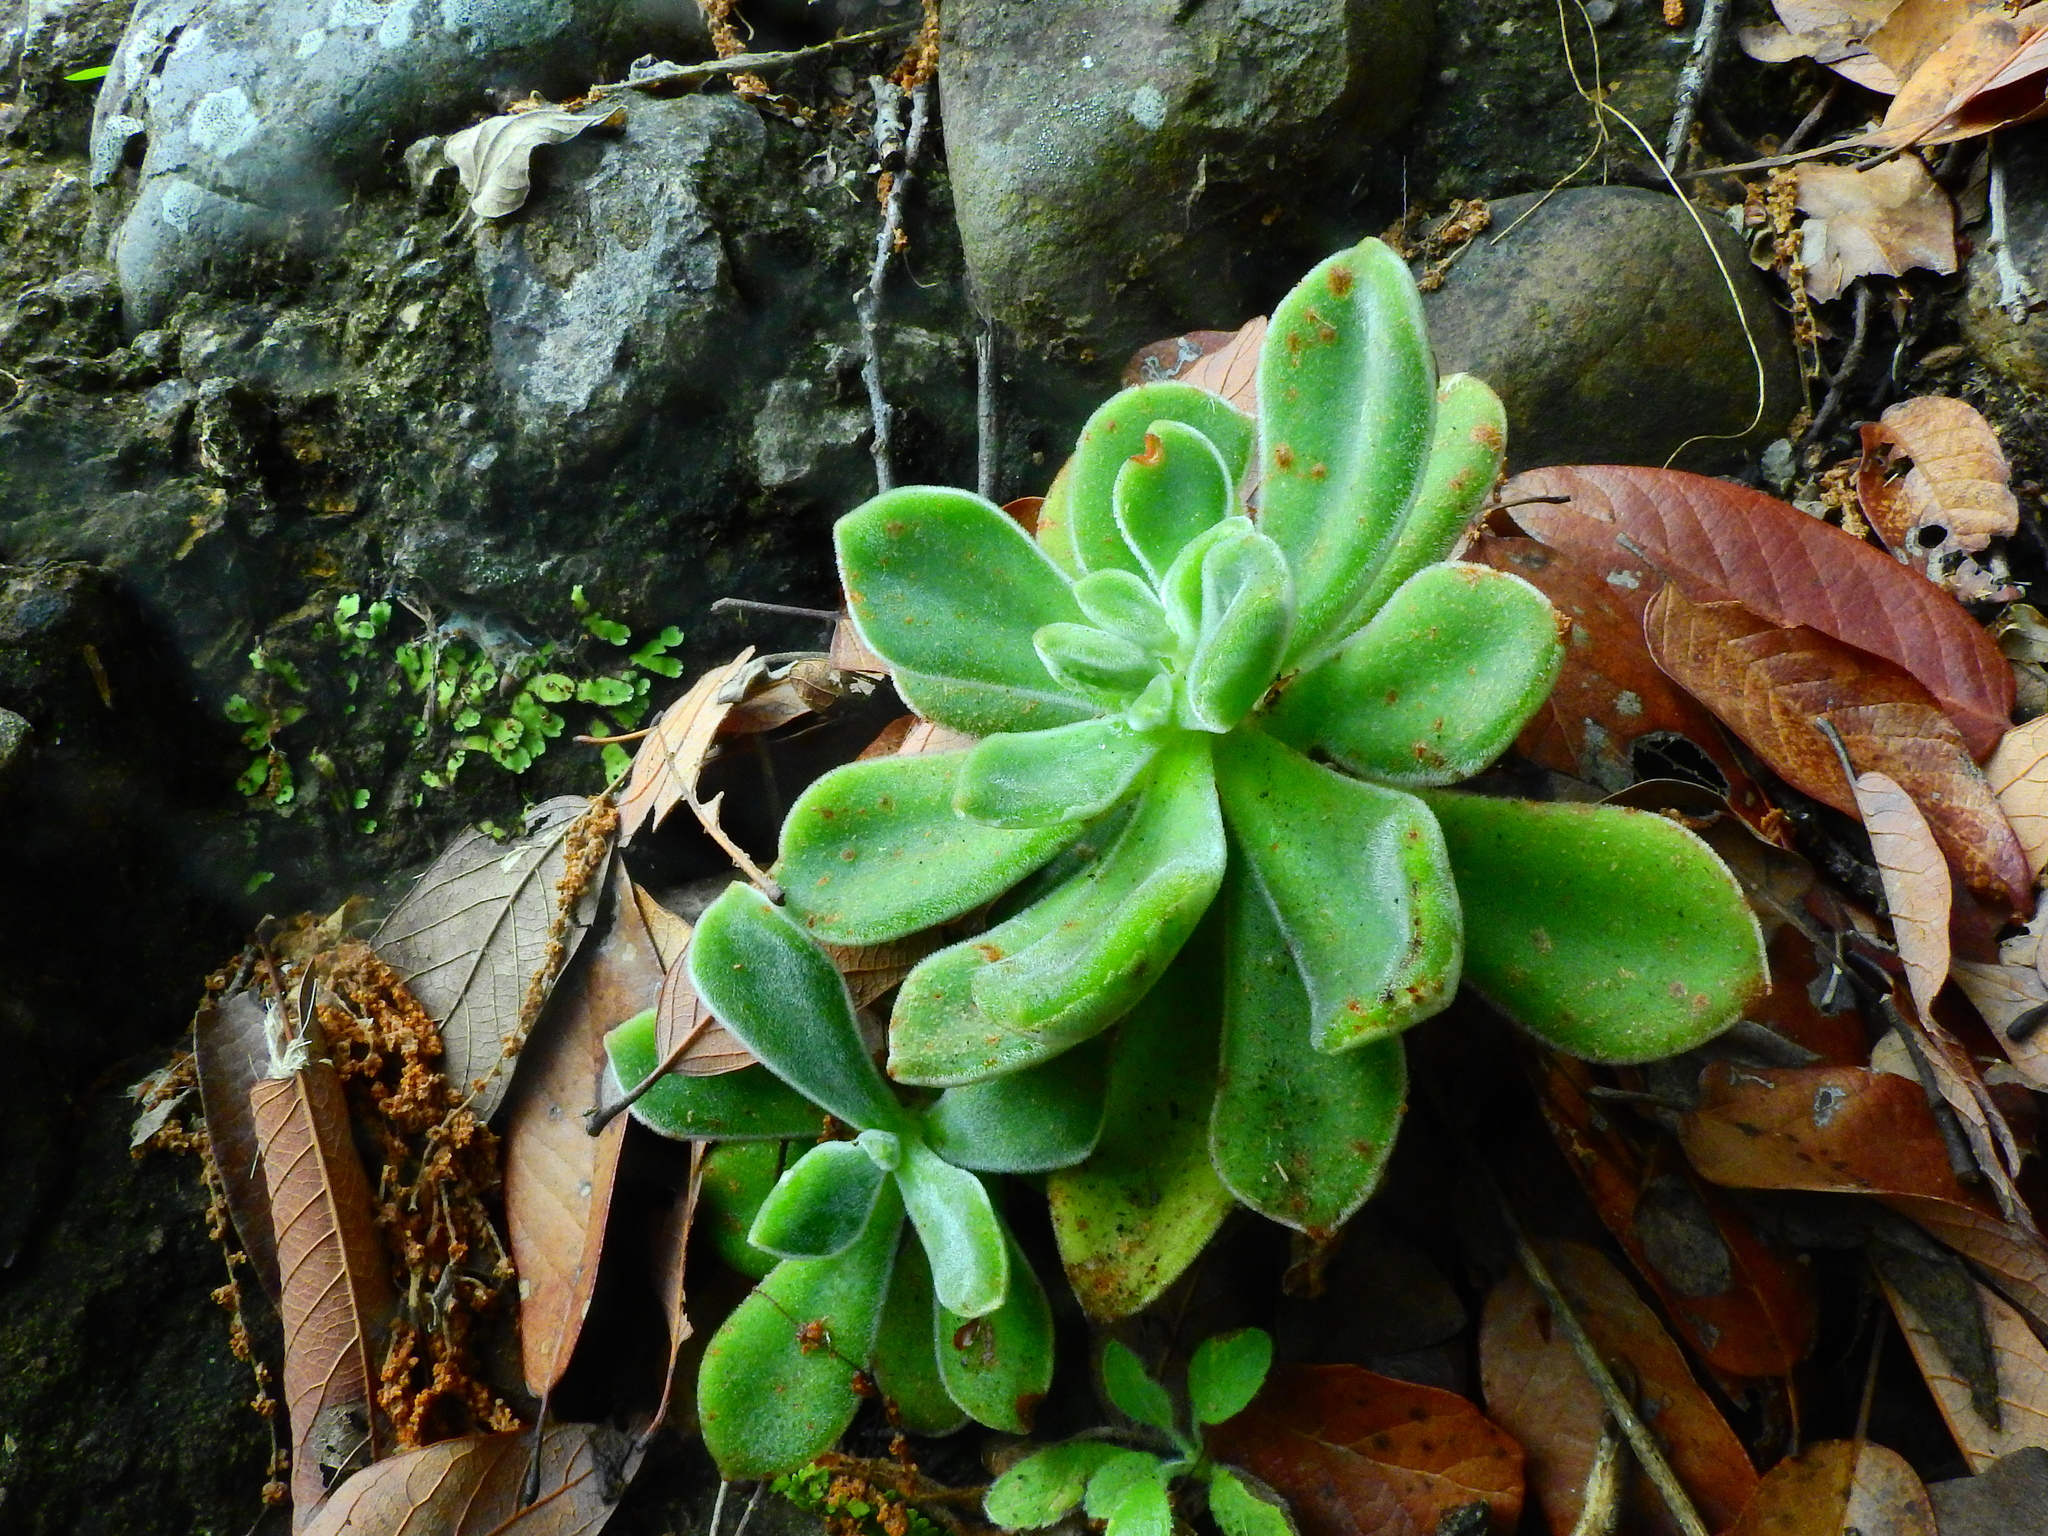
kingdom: Plantae
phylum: Tracheophyta
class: Magnoliopsida
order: Saxifragales
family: Crassulaceae
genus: Echeveria
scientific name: Echeveria pulvinata
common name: Chenilleplant
